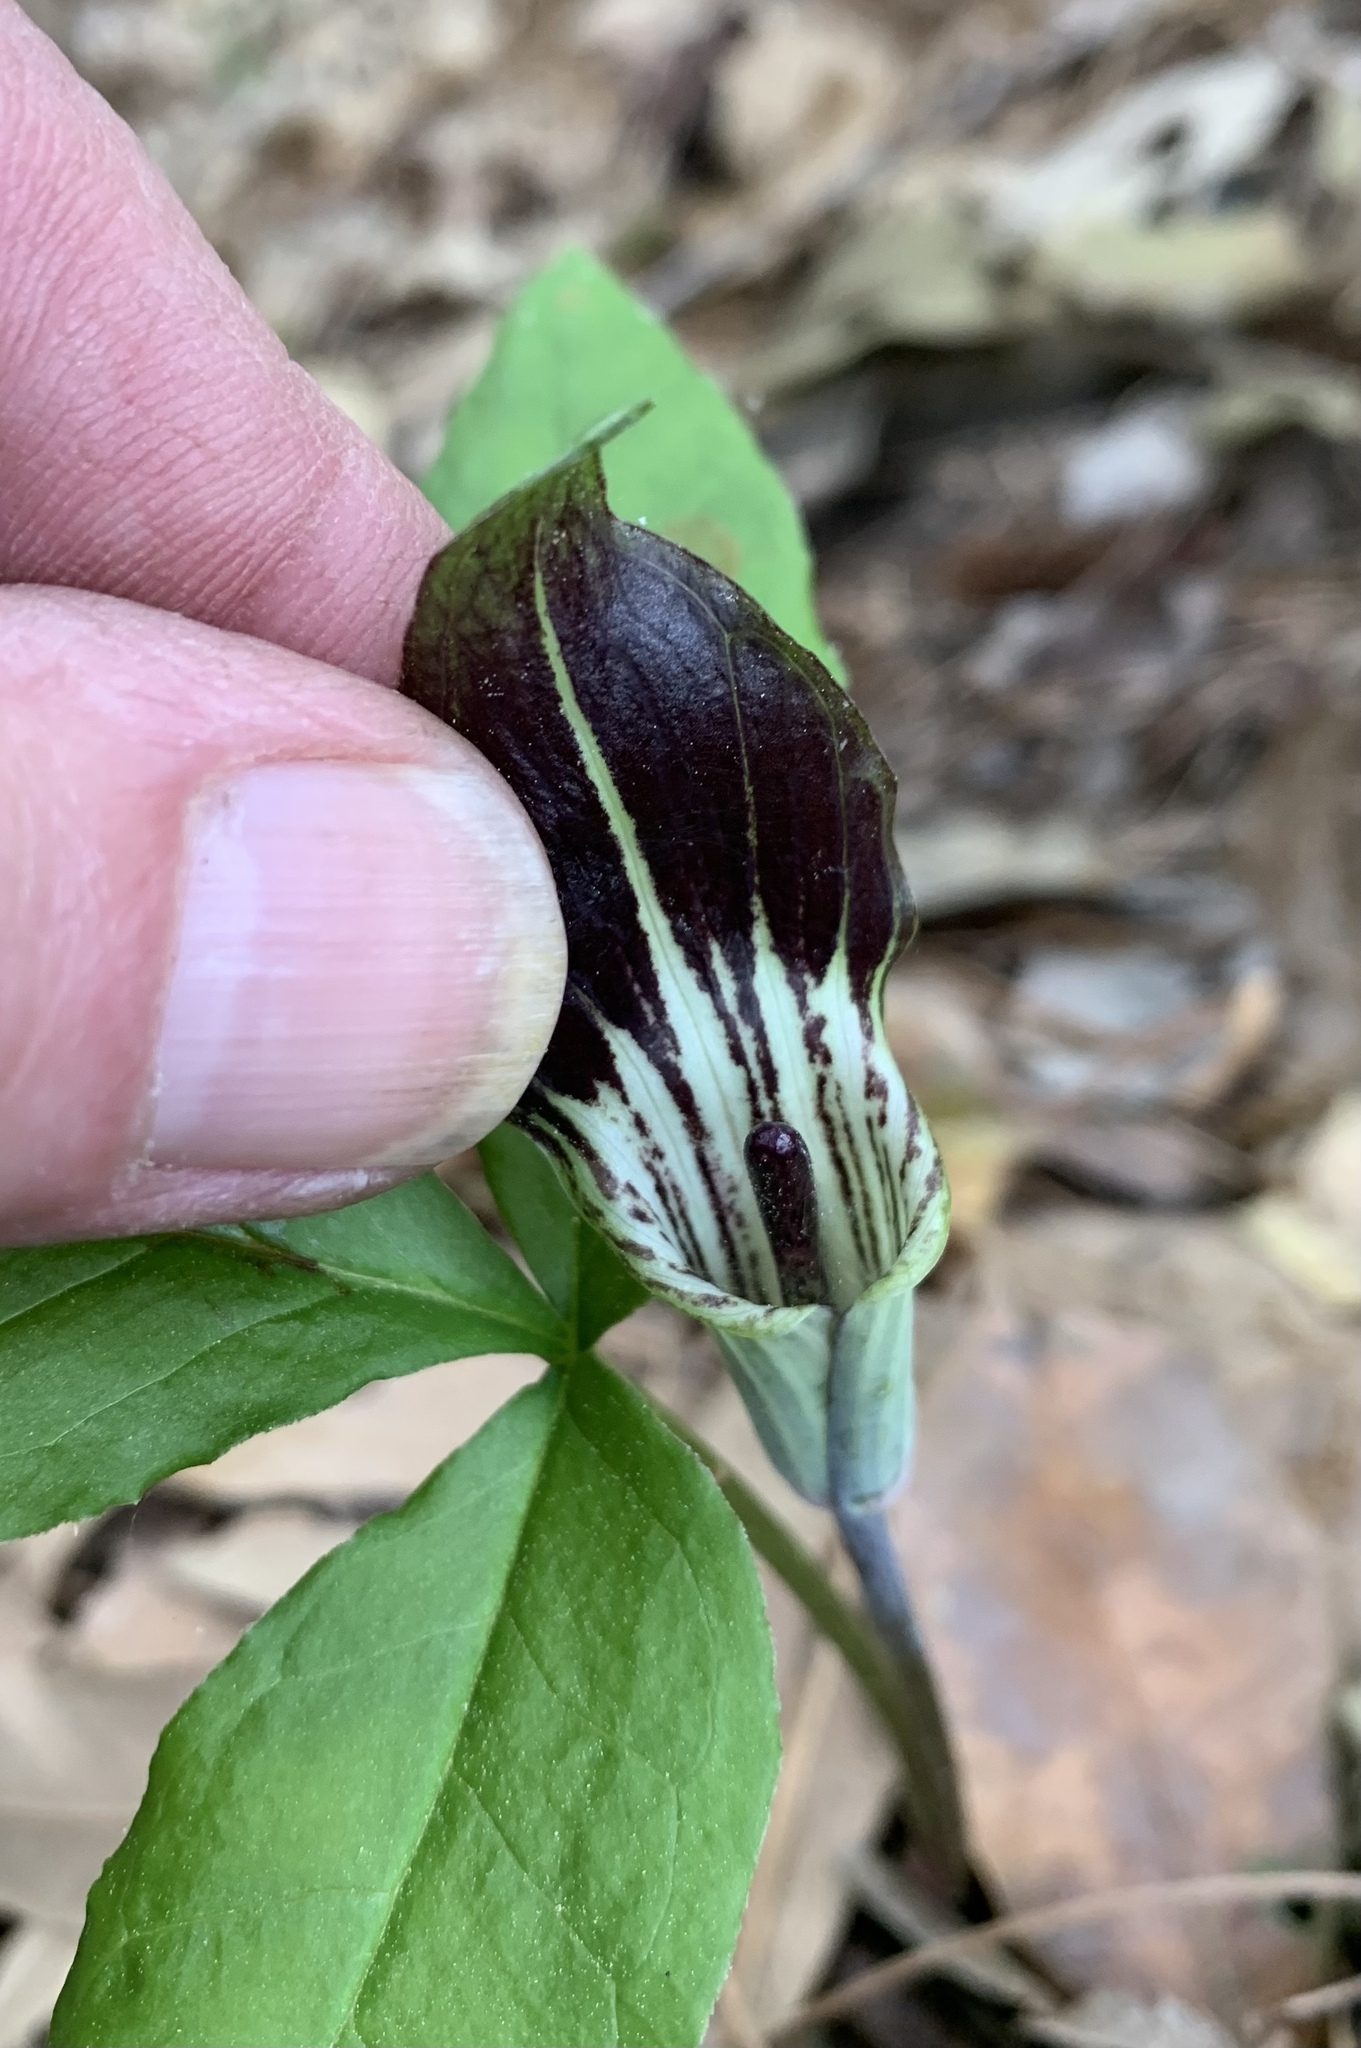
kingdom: Plantae
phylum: Tracheophyta
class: Liliopsida
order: Alismatales
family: Araceae
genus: Arisaema
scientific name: Arisaema triphyllum
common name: Jack-in-the-pulpit
